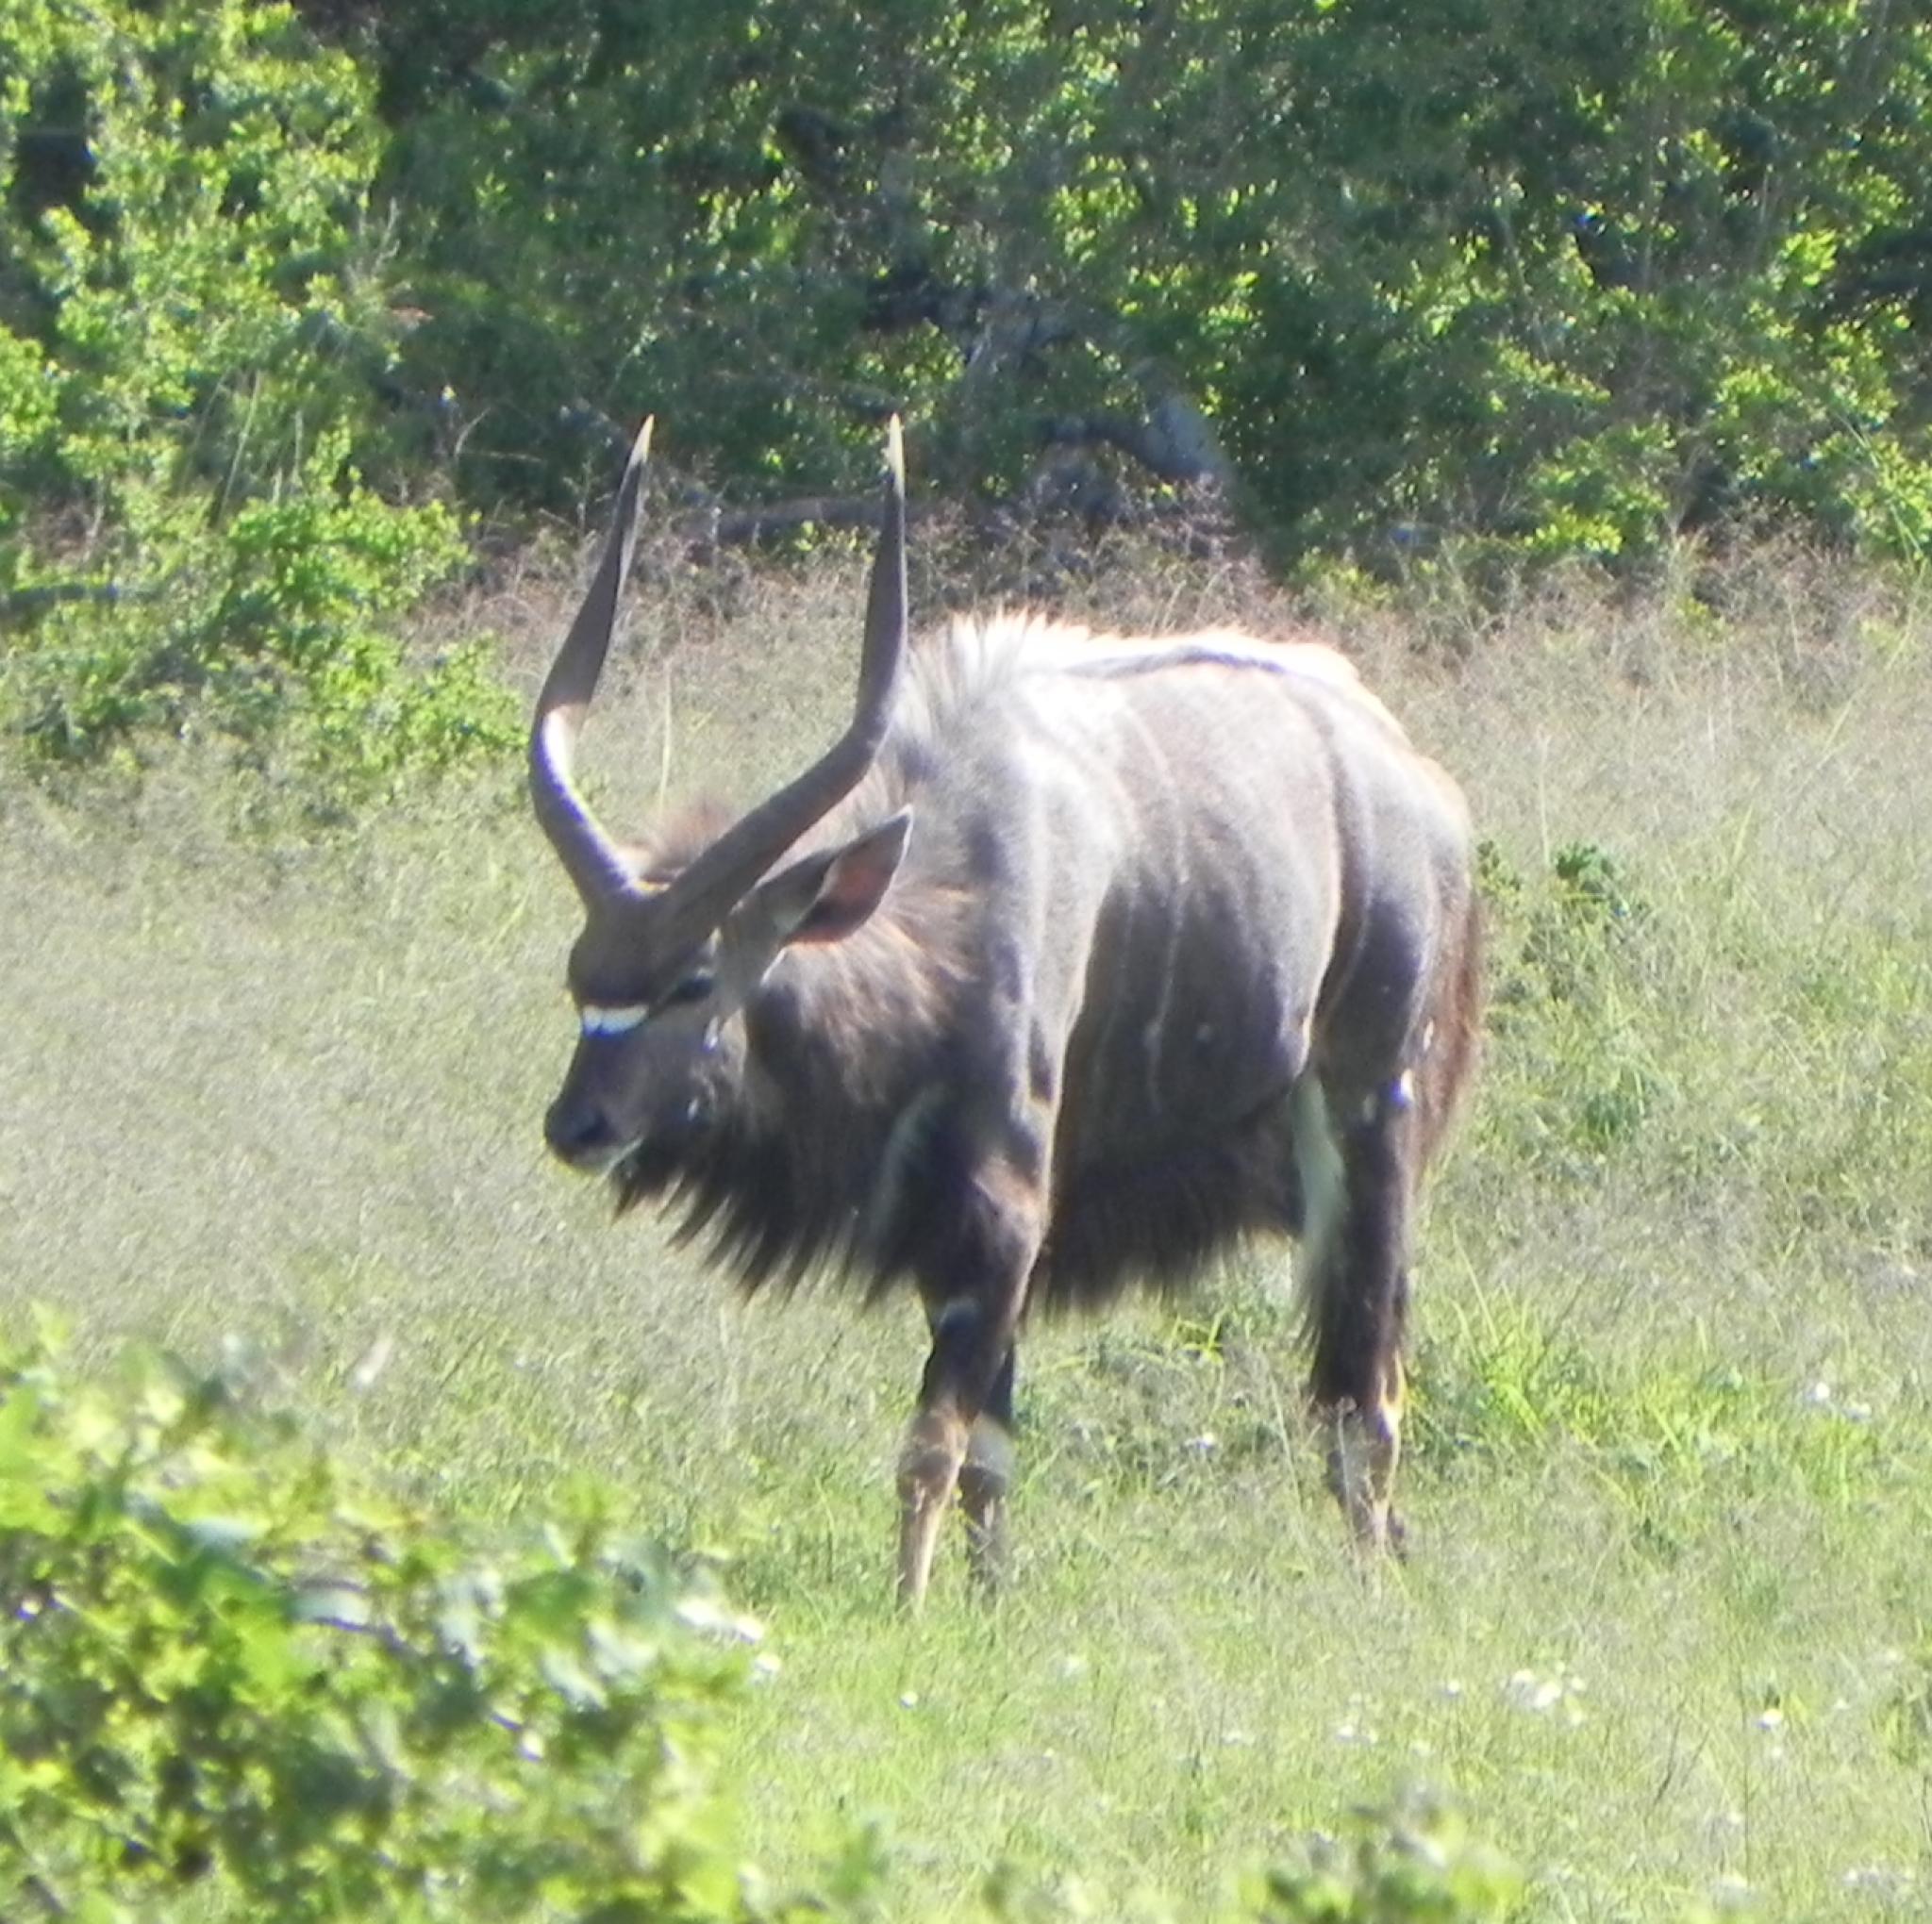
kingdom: Animalia
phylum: Chordata
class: Mammalia
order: Artiodactyla
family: Bovidae
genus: Tragelaphus
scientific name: Tragelaphus angasii
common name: Nyala
